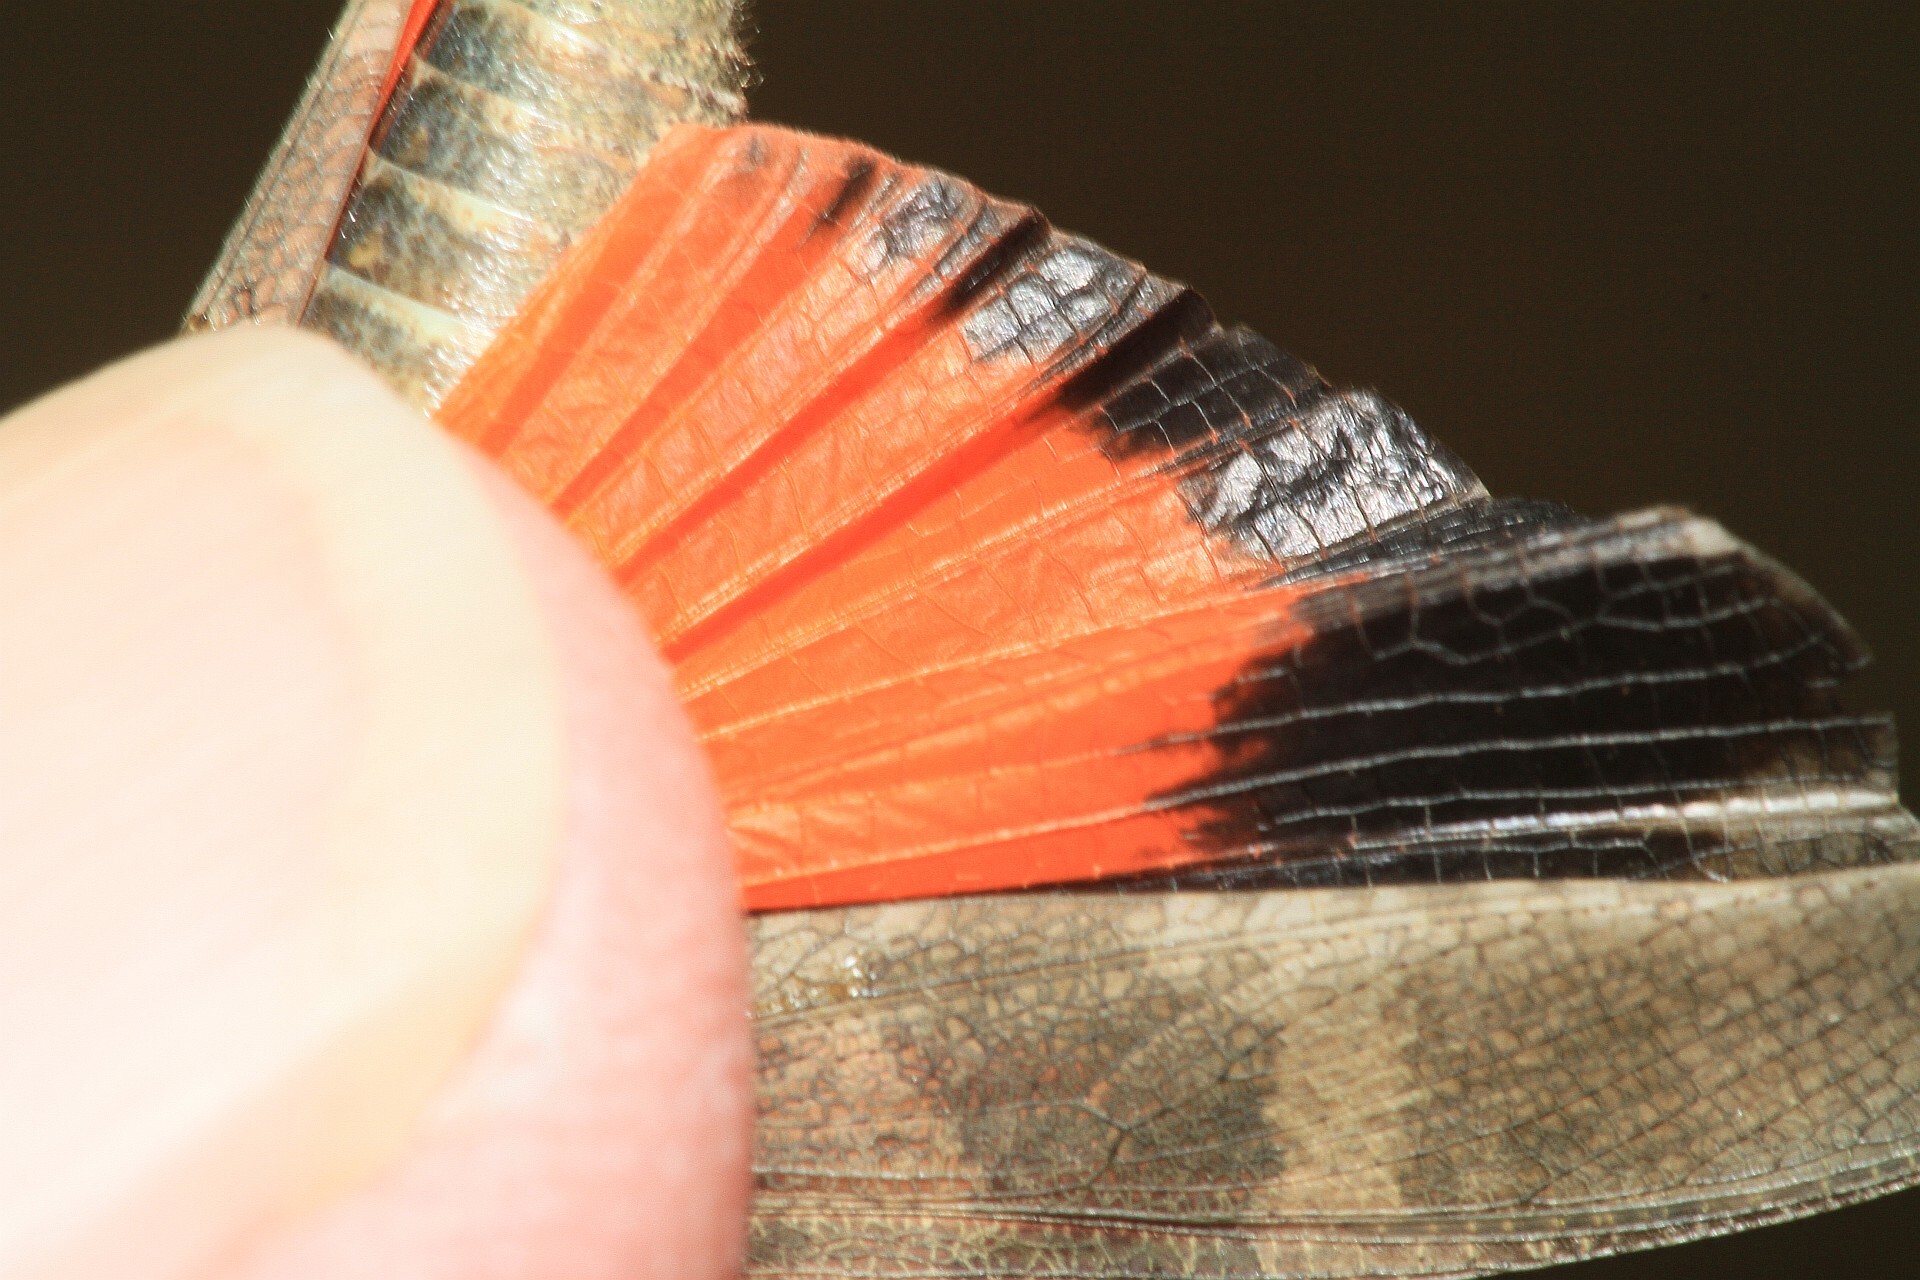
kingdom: Animalia
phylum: Arthropoda
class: Insecta
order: Orthoptera
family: Acrididae
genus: Oedipoda
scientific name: Oedipoda germanica
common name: Red band-winged grasshopper
